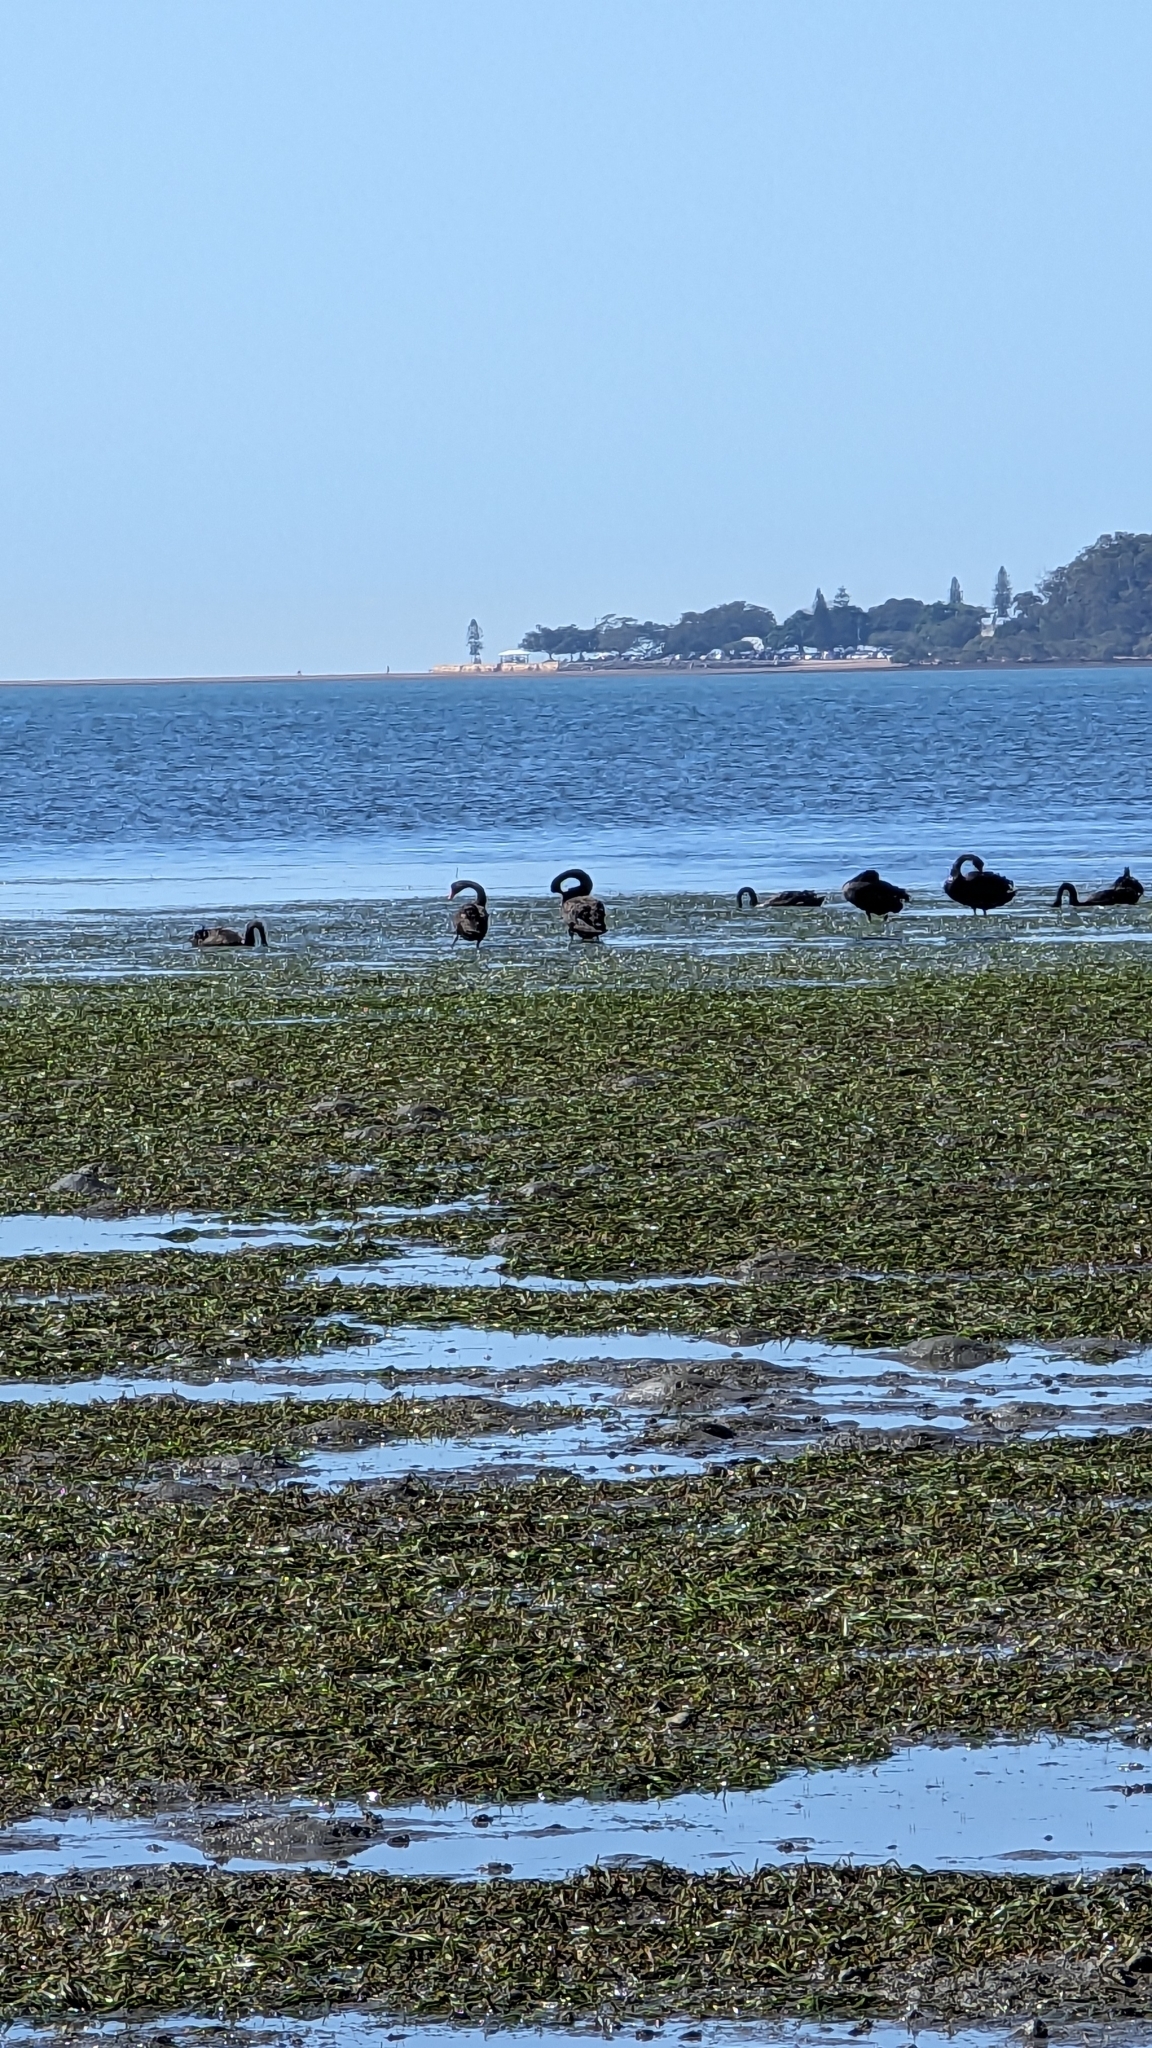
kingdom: Animalia
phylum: Chordata
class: Aves
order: Anseriformes
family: Anatidae
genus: Cygnus
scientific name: Cygnus atratus
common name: Black swan
